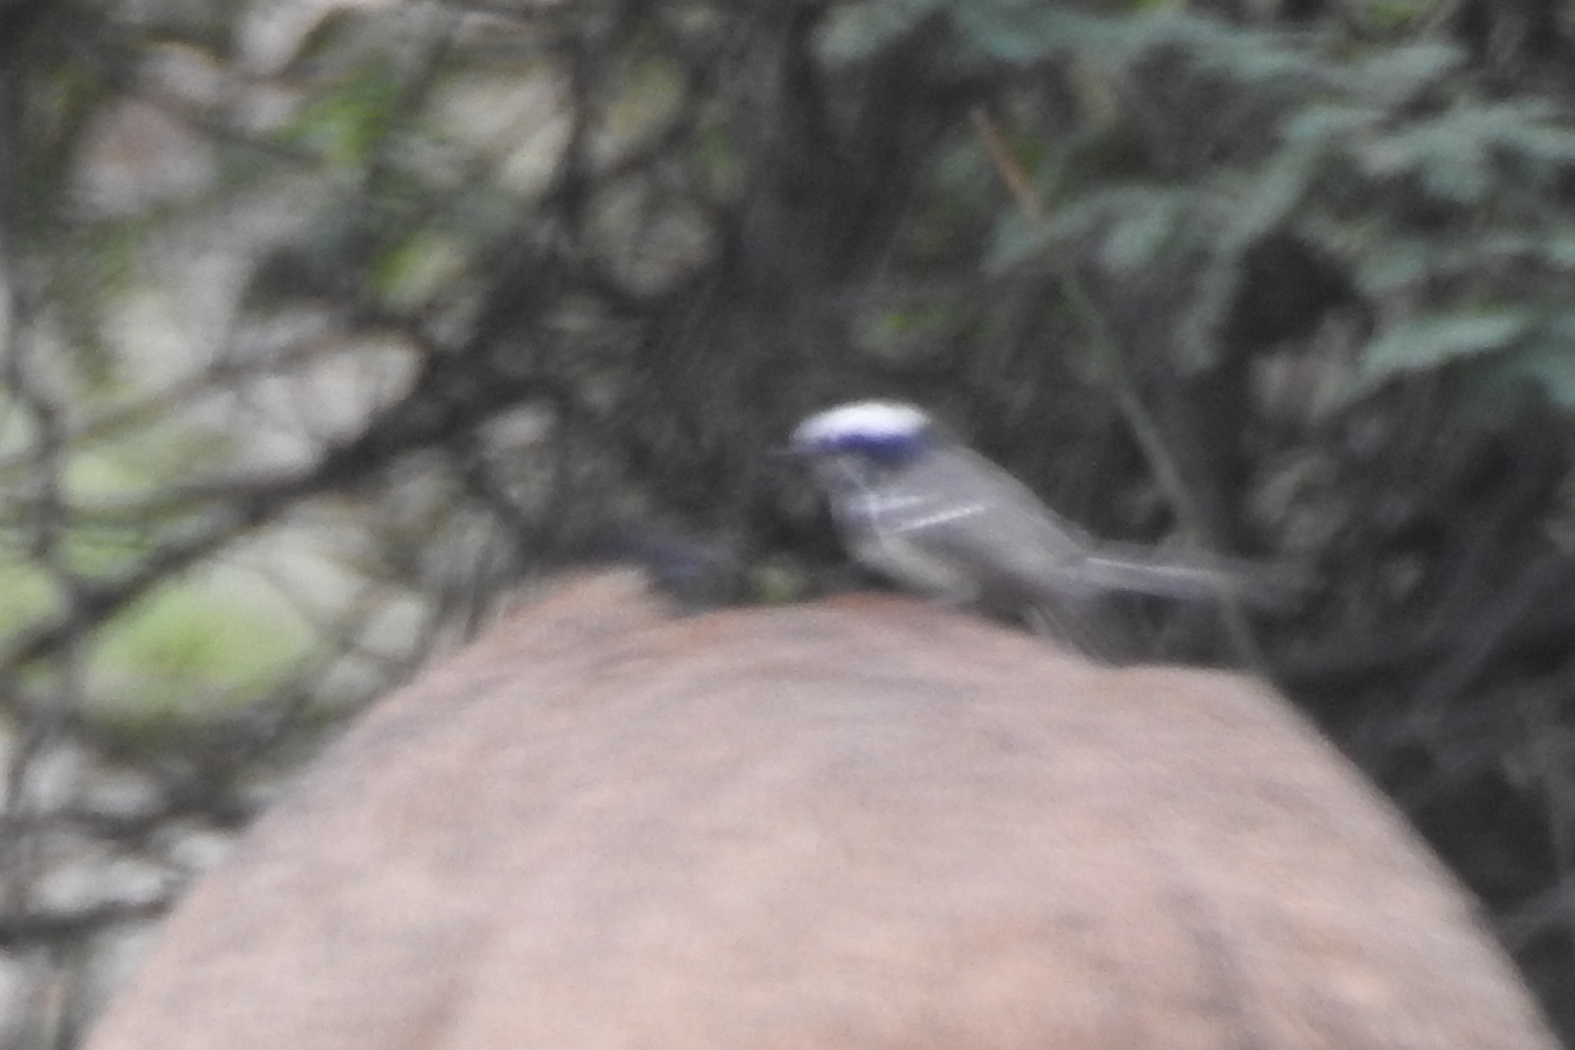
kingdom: Animalia
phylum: Chordata
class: Aves
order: Passeriformes
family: Rhipiduridae
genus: Rhipidura
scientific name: Rhipidura aureola
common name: White-browed fantail
